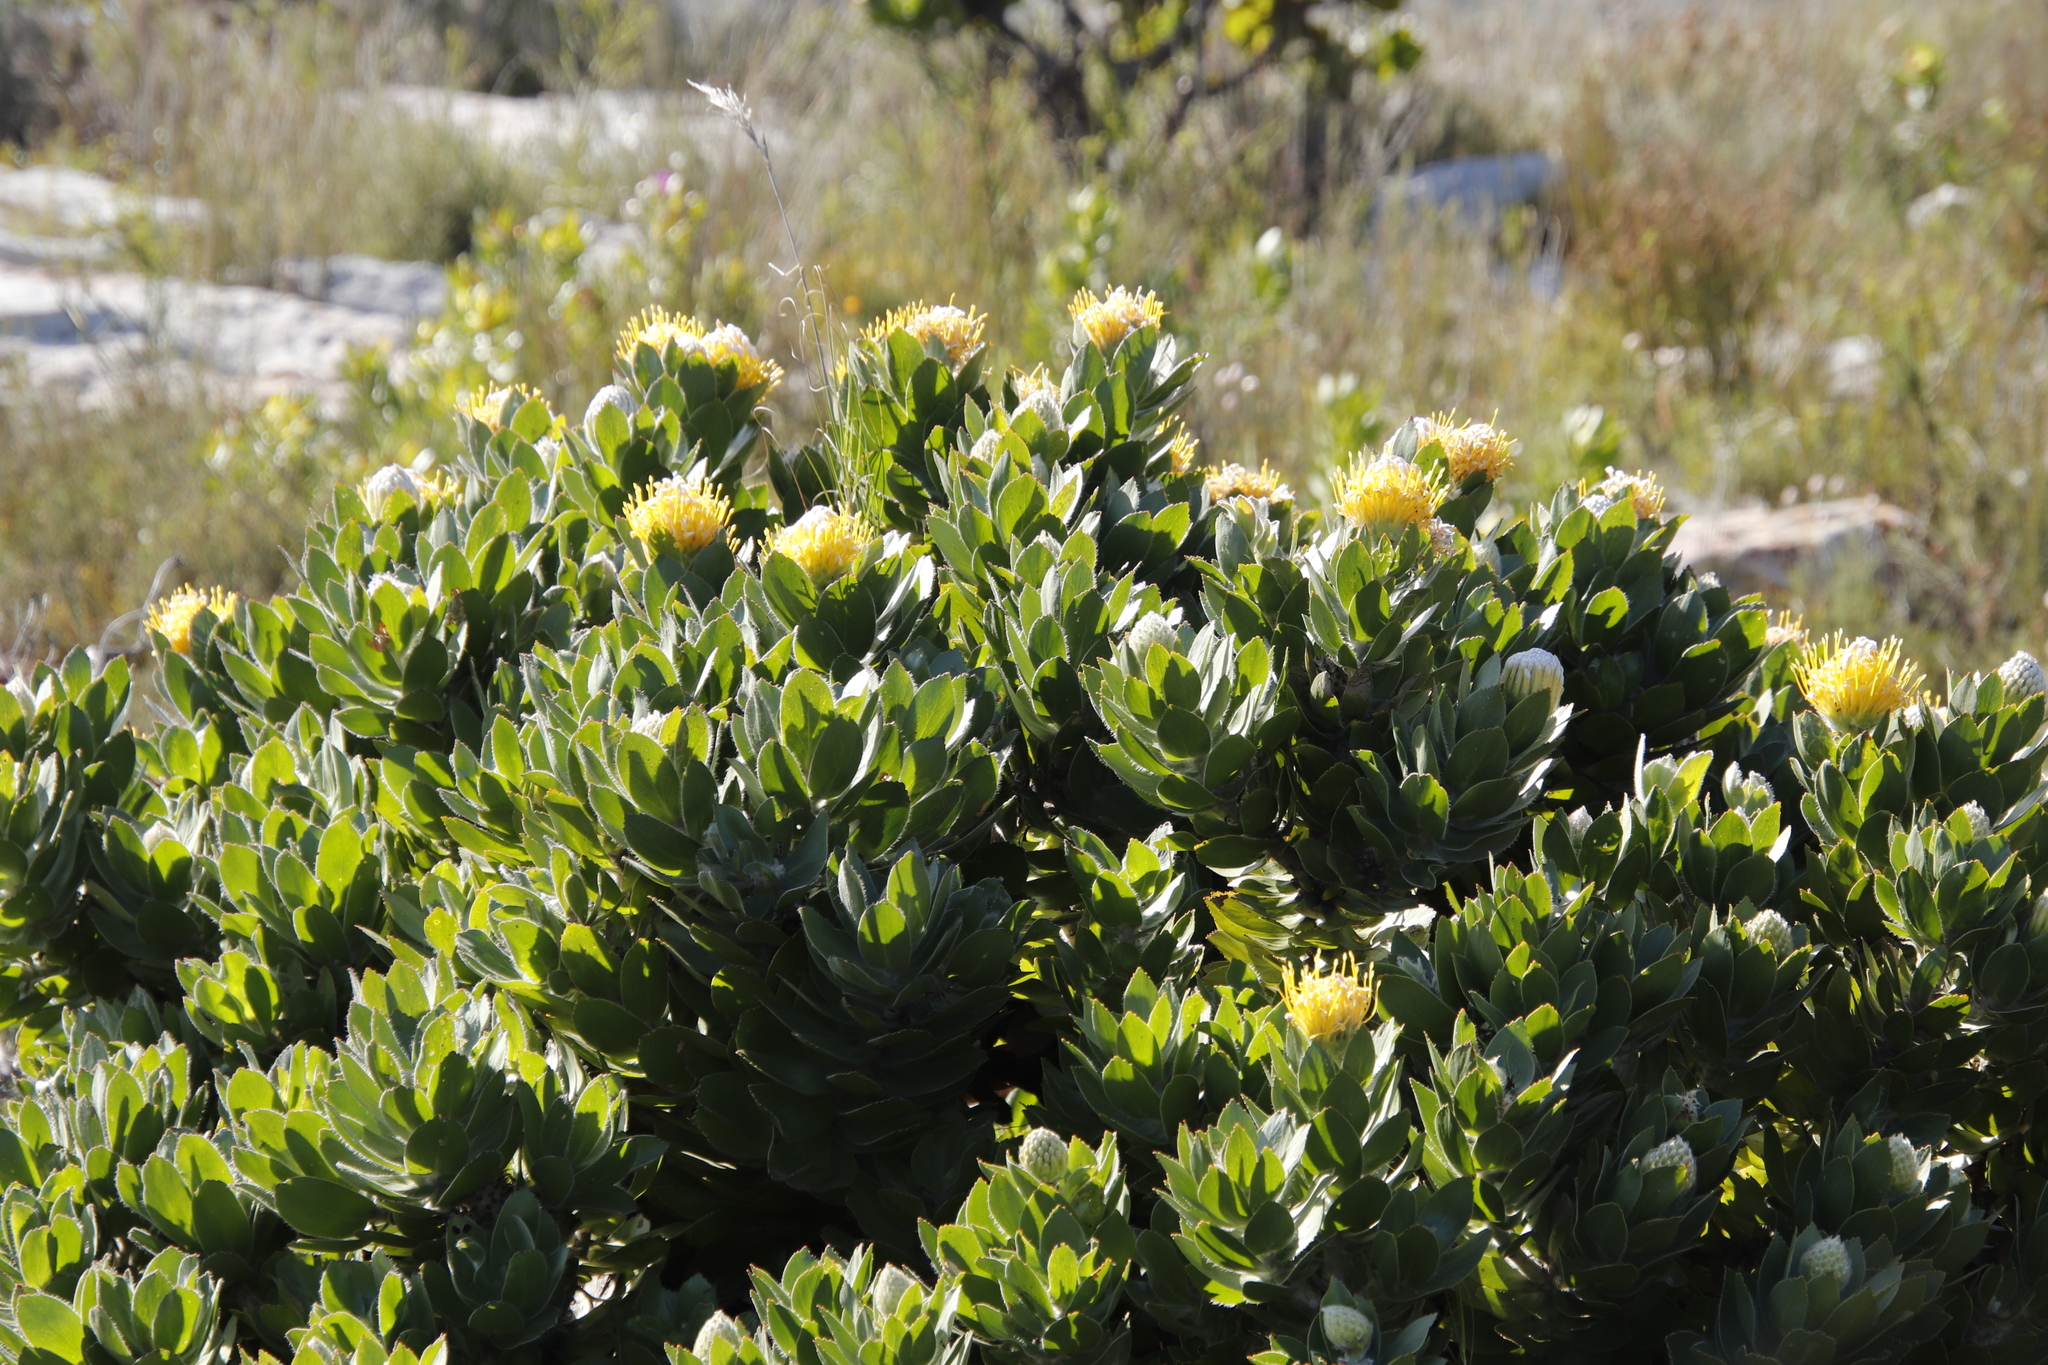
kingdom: Plantae
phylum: Tracheophyta
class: Magnoliopsida
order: Proteales
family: Proteaceae
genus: Leucospermum
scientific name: Leucospermum conocarpodendron
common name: Tree pincushion
